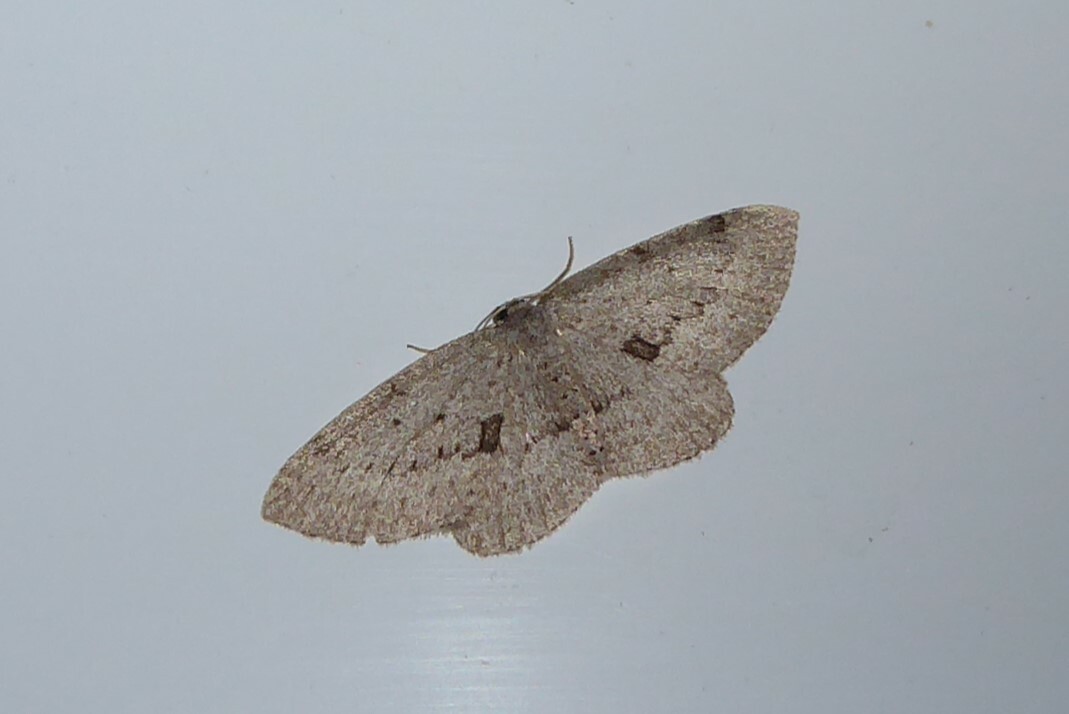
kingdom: Animalia
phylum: Arthropoda
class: Insecta
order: Lepidoptera
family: Geometridae
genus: Poecilasthena
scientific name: Poecilasthena schistaria
